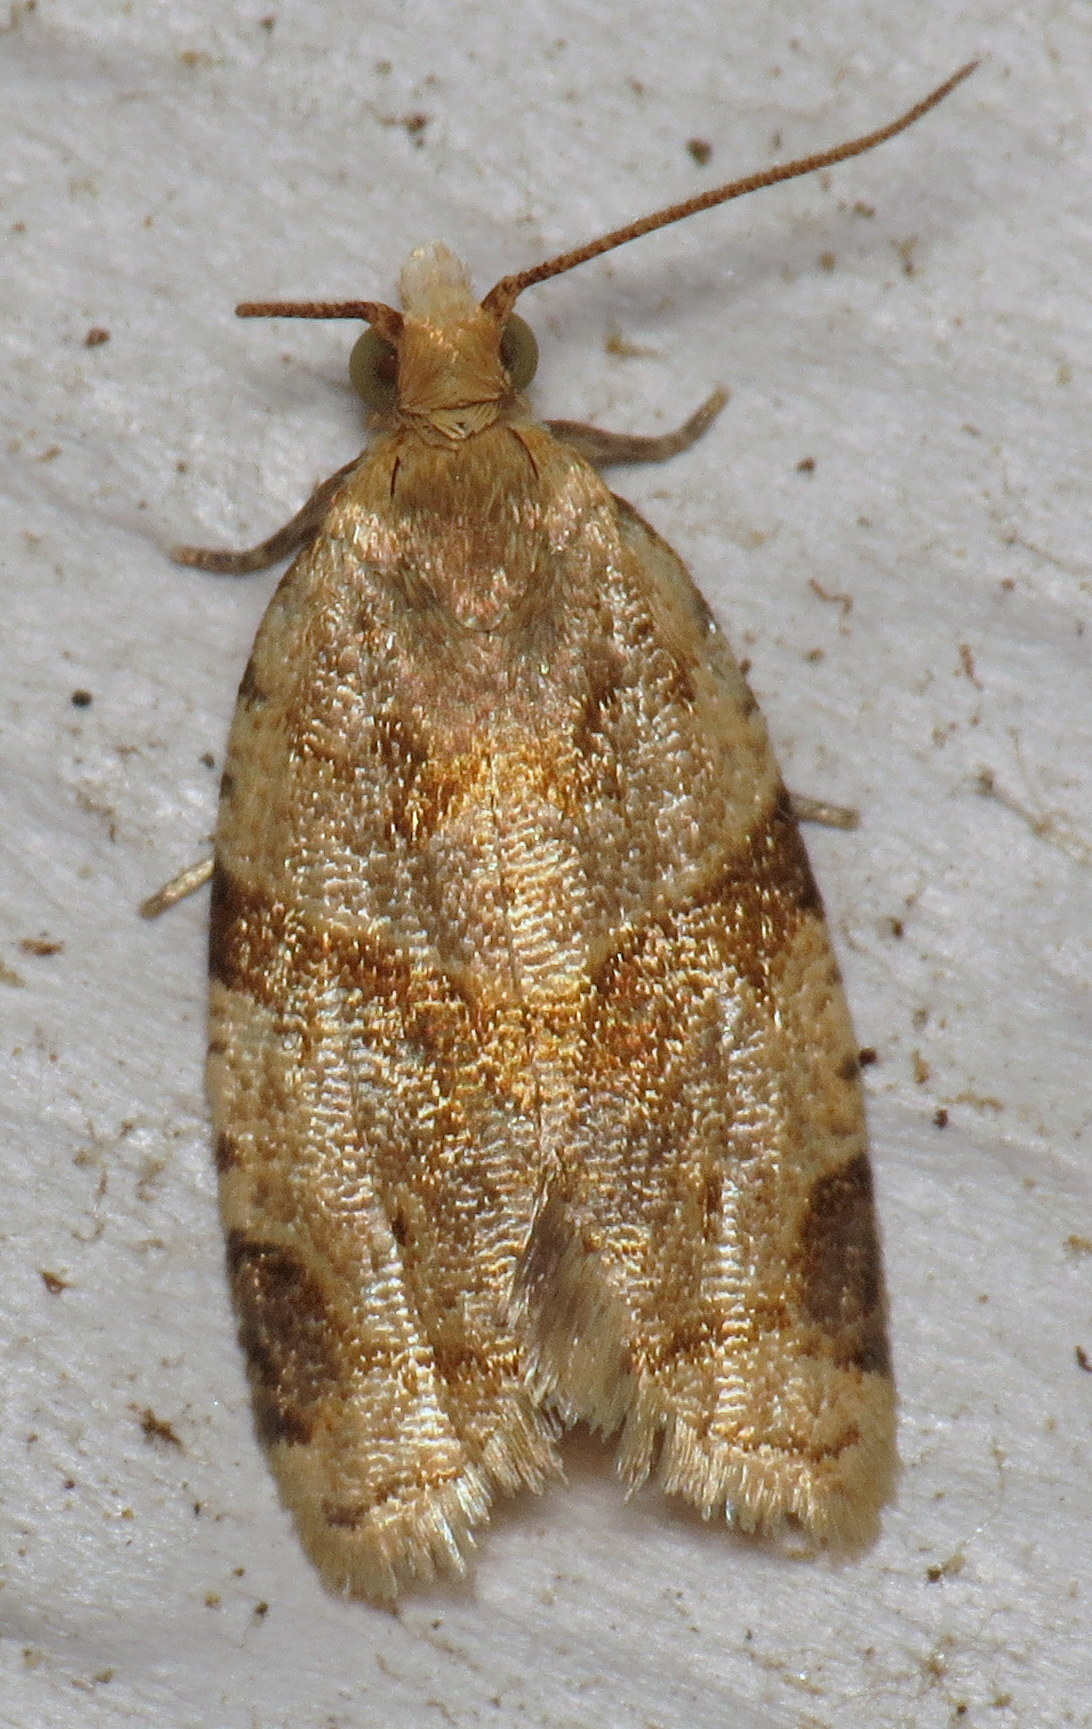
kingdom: Animalia
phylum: Arthropoda
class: Insecta
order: Lepidoptera
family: Tortricidae
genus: Clepsis
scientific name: Clepsis peritana
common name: Garden tortrix
